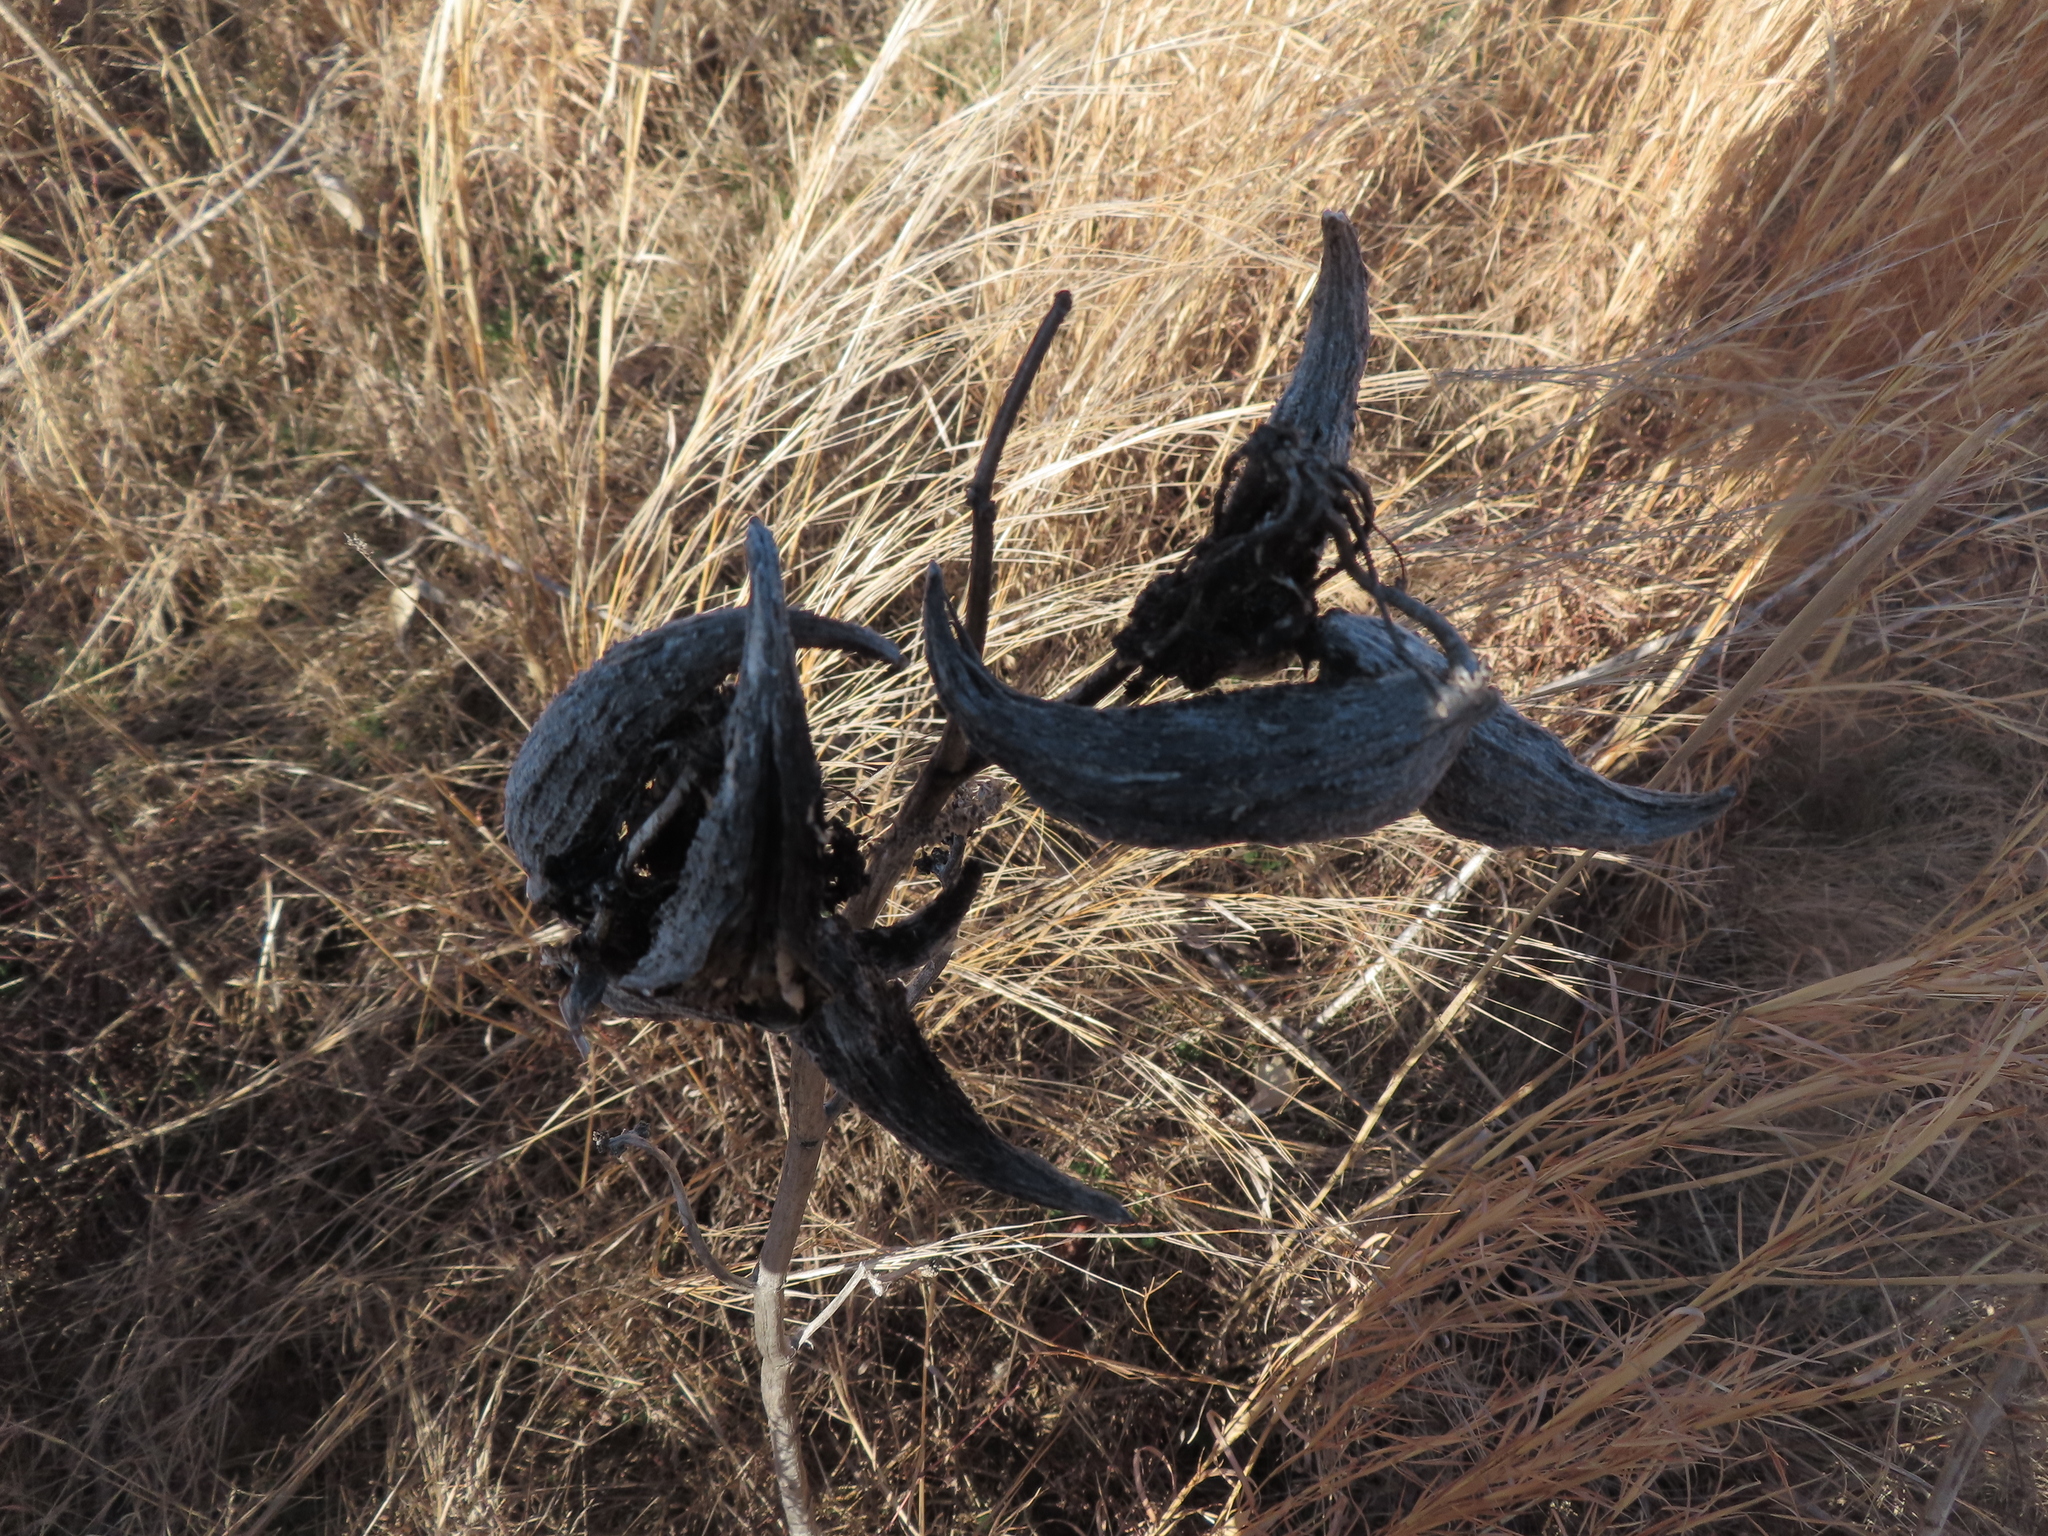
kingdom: Plantae
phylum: Tracheophyta
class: Magnoliopsida
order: Gentianales
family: Apocynaceae
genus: Asclepias
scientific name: Asclepias syriaca
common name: Common milkweed
